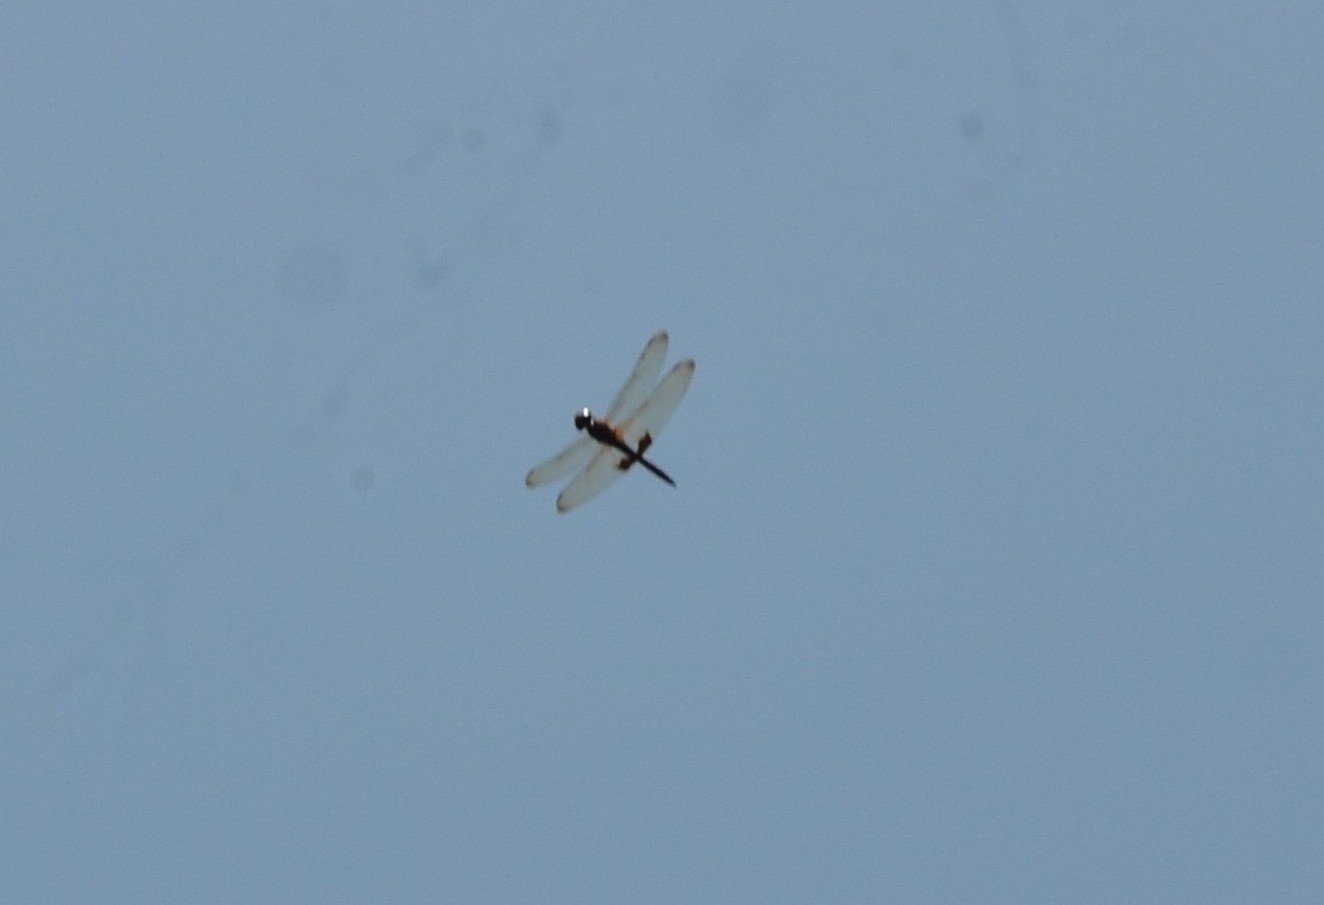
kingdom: Animalia
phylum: Arthropoda
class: Insecta
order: Odonata
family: Libellulidae
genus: Hydrobasileus
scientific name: Hydrobasileus croceus
